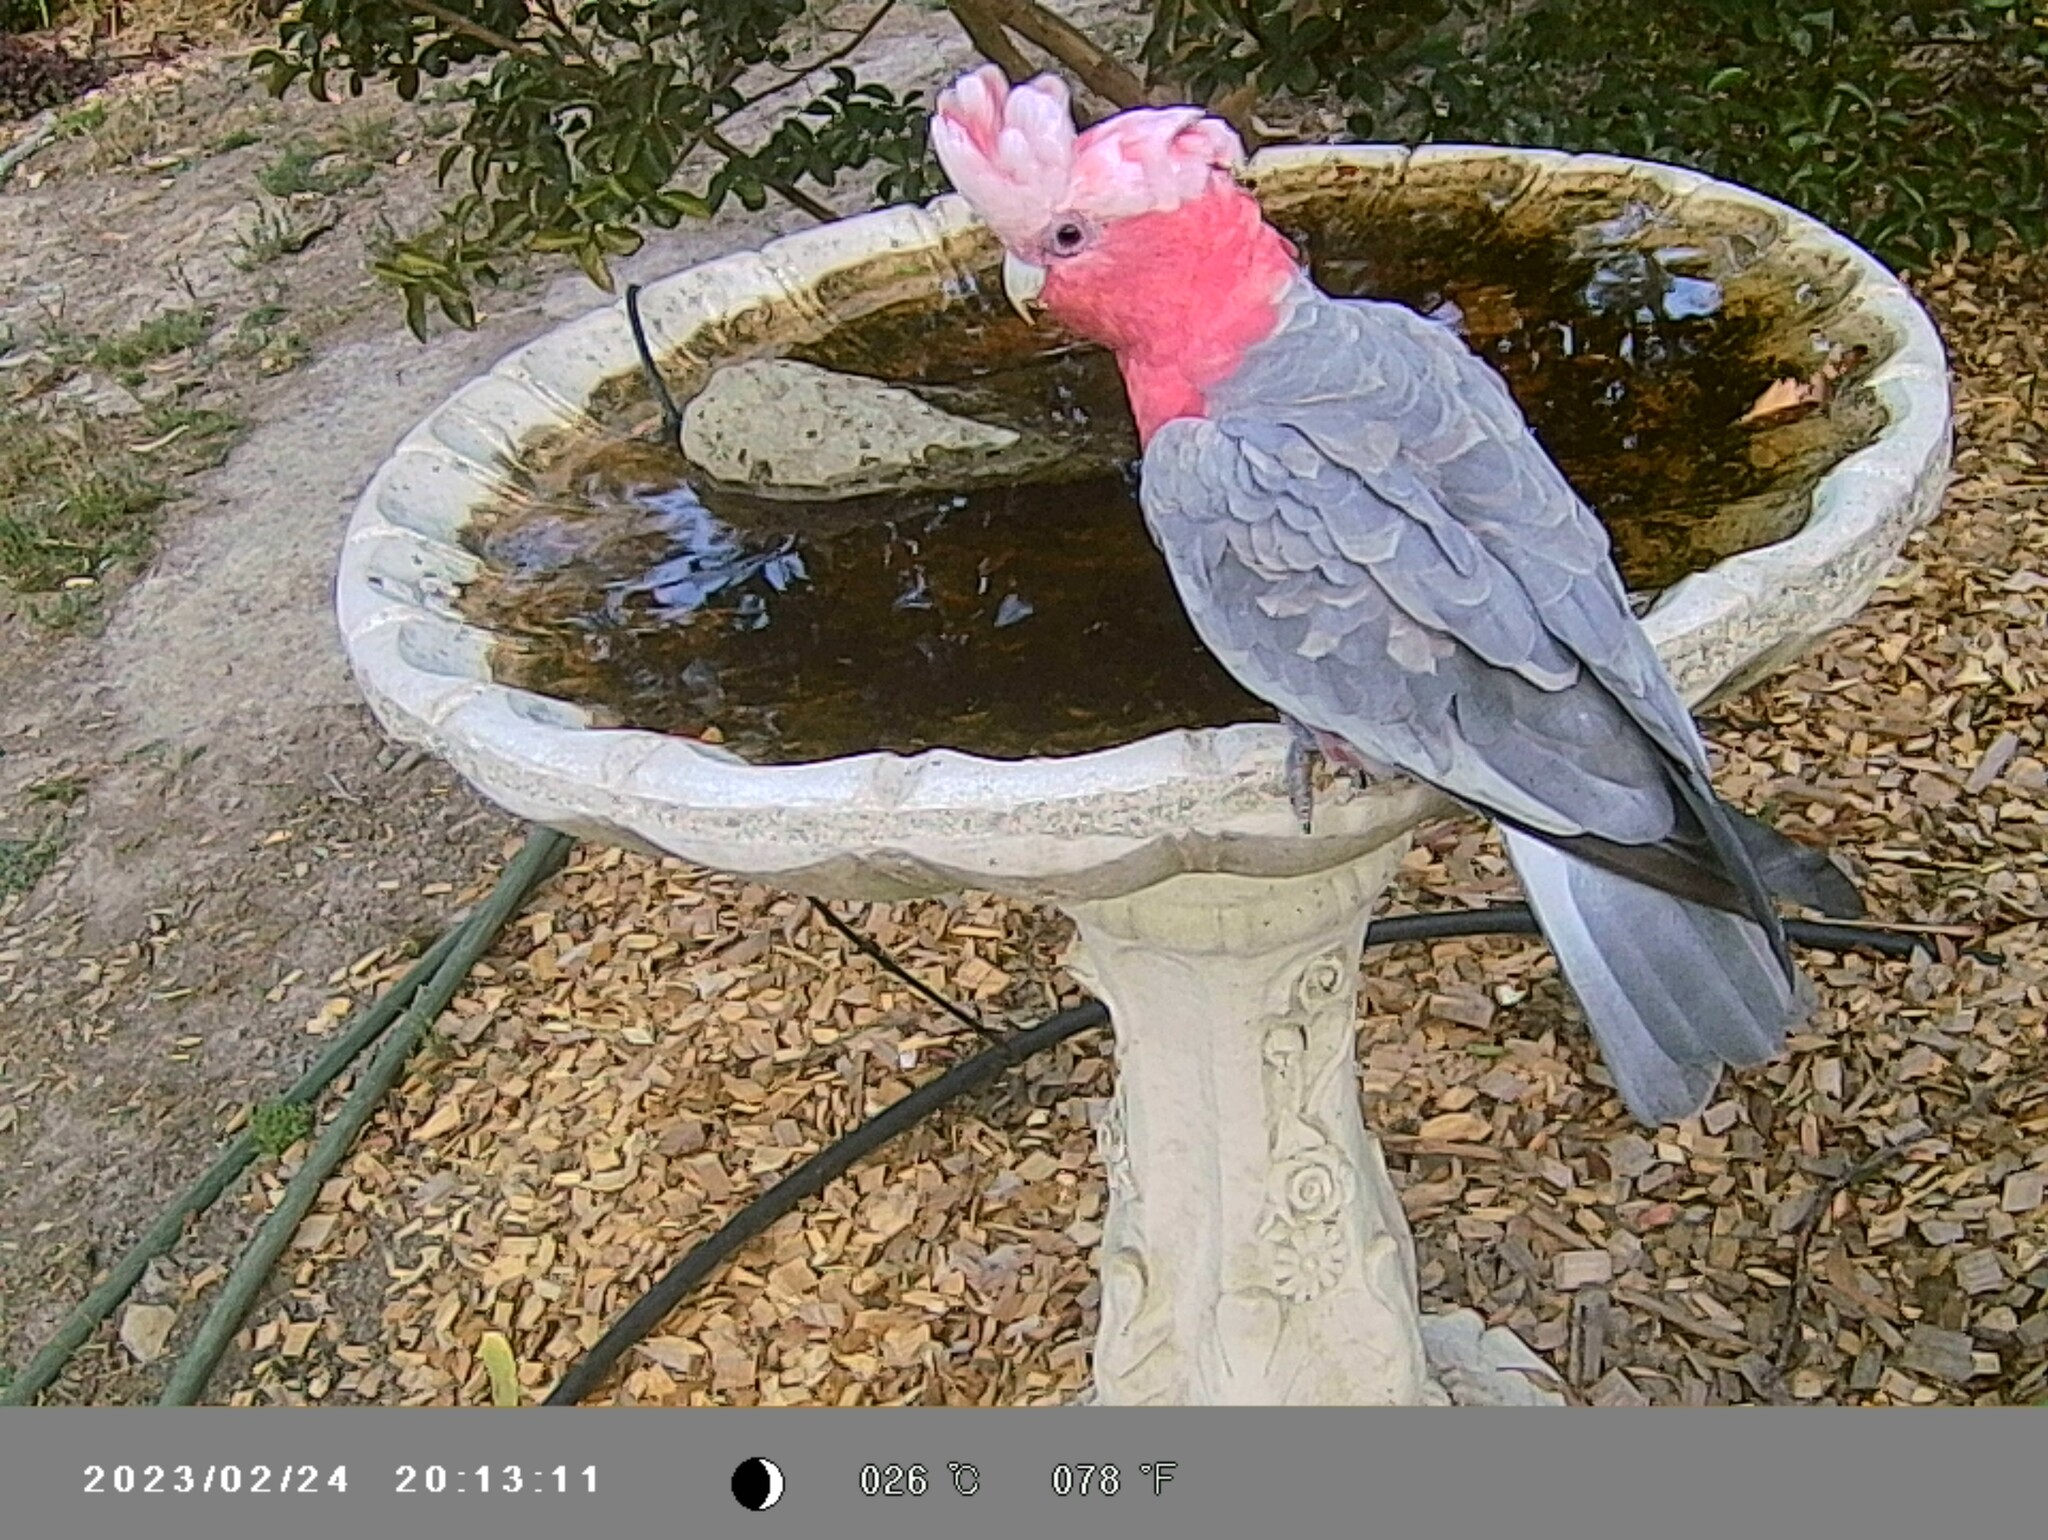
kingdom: Animalia
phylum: Chordata
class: Aves
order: Psittaciformes
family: Psittacidae
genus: Eolophus
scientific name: Eolophus roseicapilla
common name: Galah
